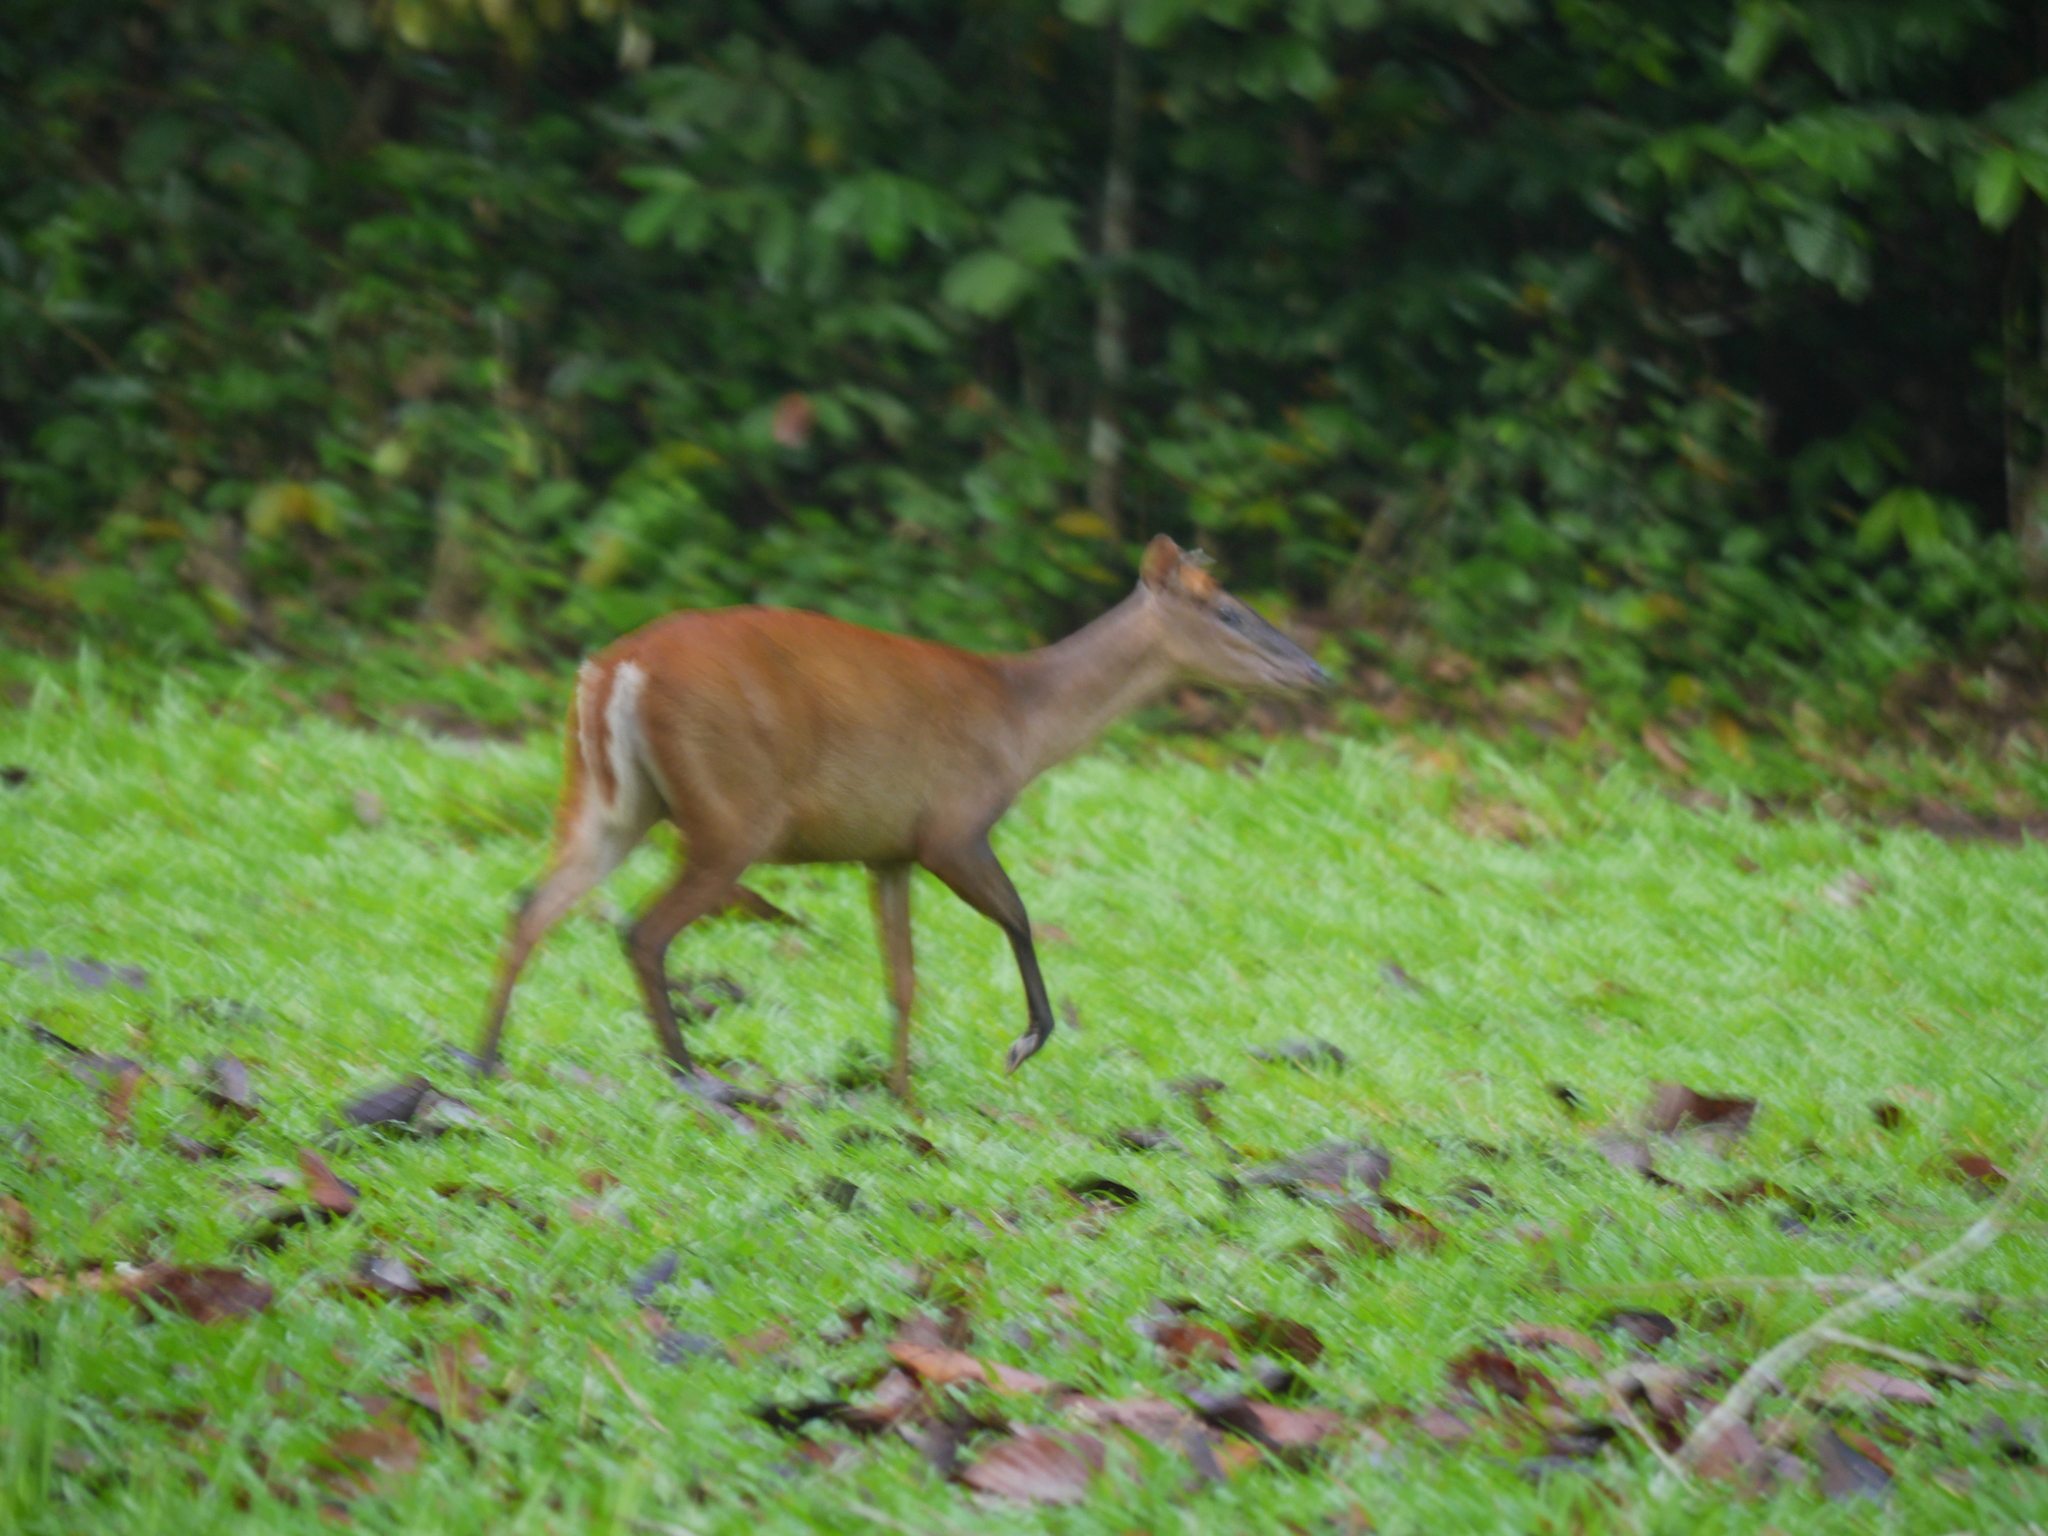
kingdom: Animalia
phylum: Chordata
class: Mammalia
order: Artiodactyla
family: Cervidae
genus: Muntiacus
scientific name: Muntiacus muntjak
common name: Indian muntjac
